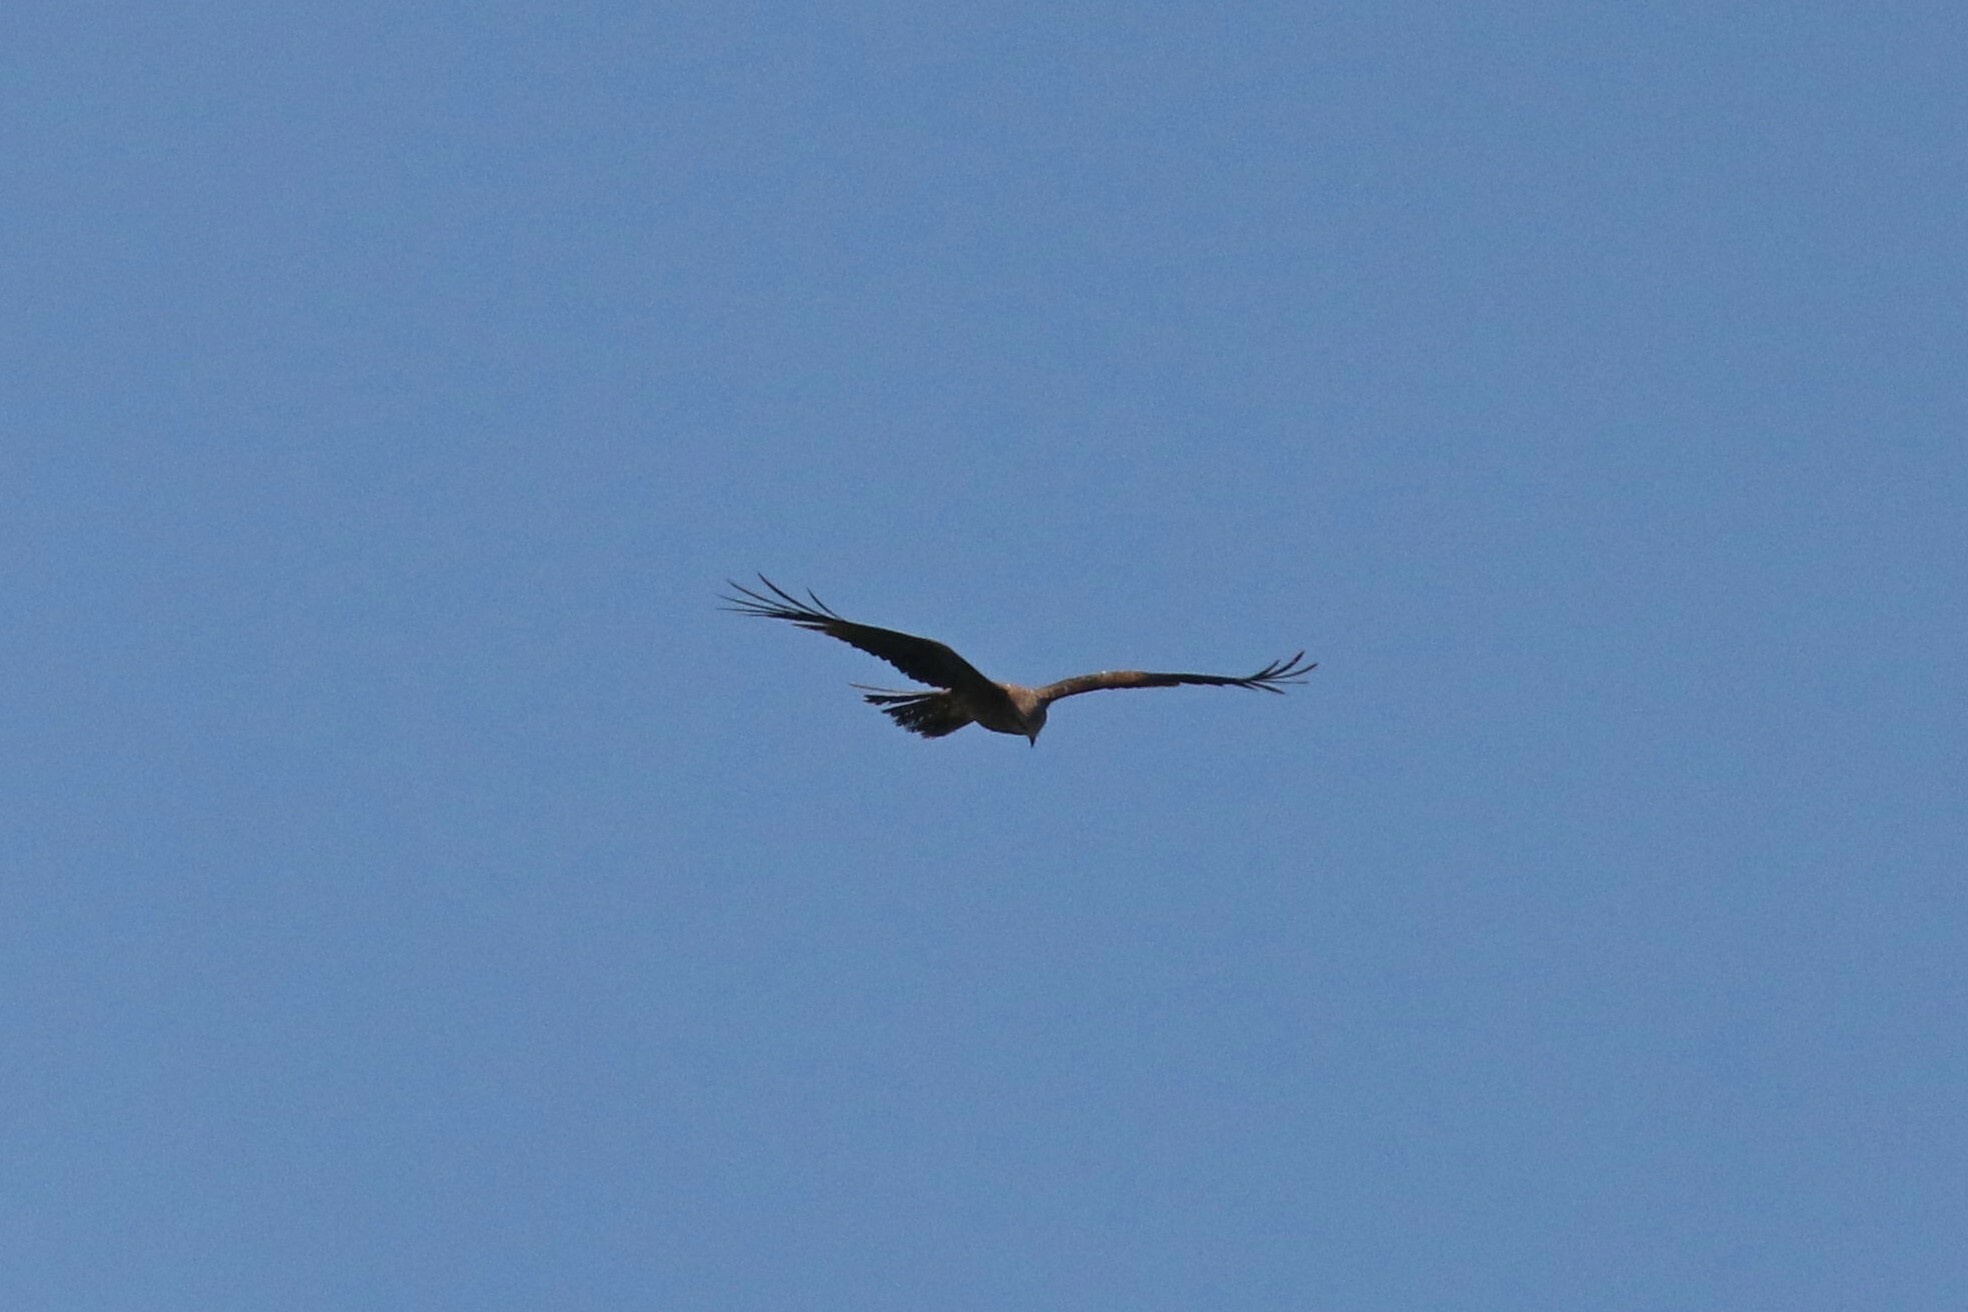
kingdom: Animalia
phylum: Chordata
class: Aves
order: Accipitriformes
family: Accipitridae
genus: Milvus
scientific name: Milvus migrans
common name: Black kite
